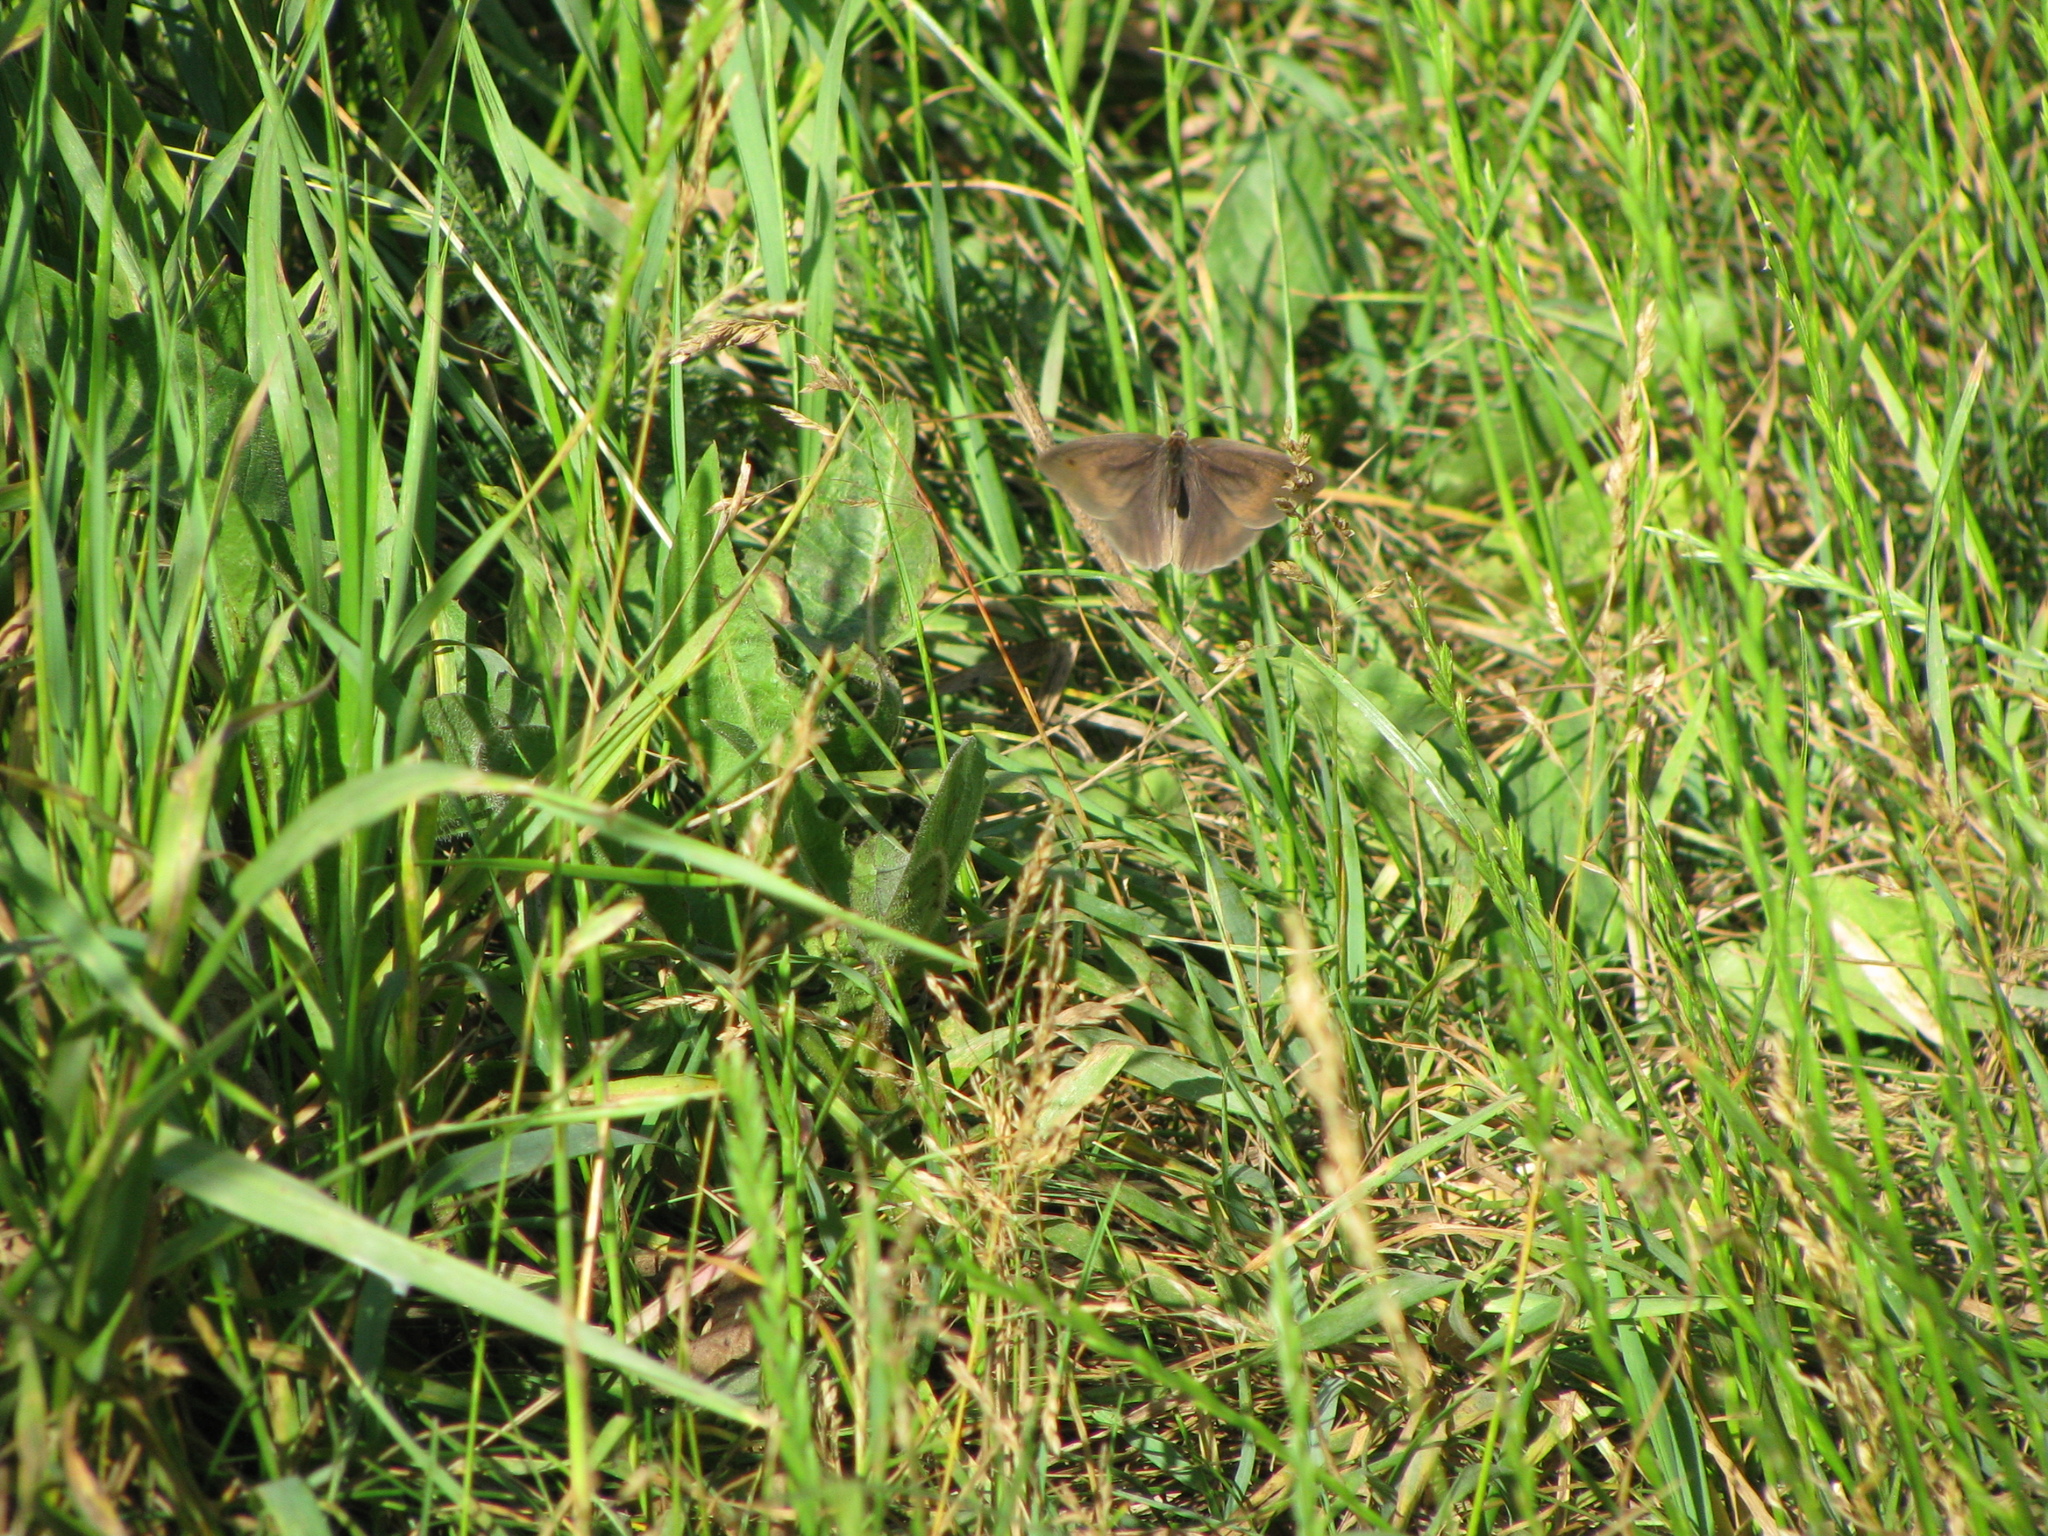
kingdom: Animalia
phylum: Arthropoda
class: Insecta
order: Lepidoptera
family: Nymphalidae
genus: Maniola
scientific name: Maniola jurtina
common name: Meadow brown
